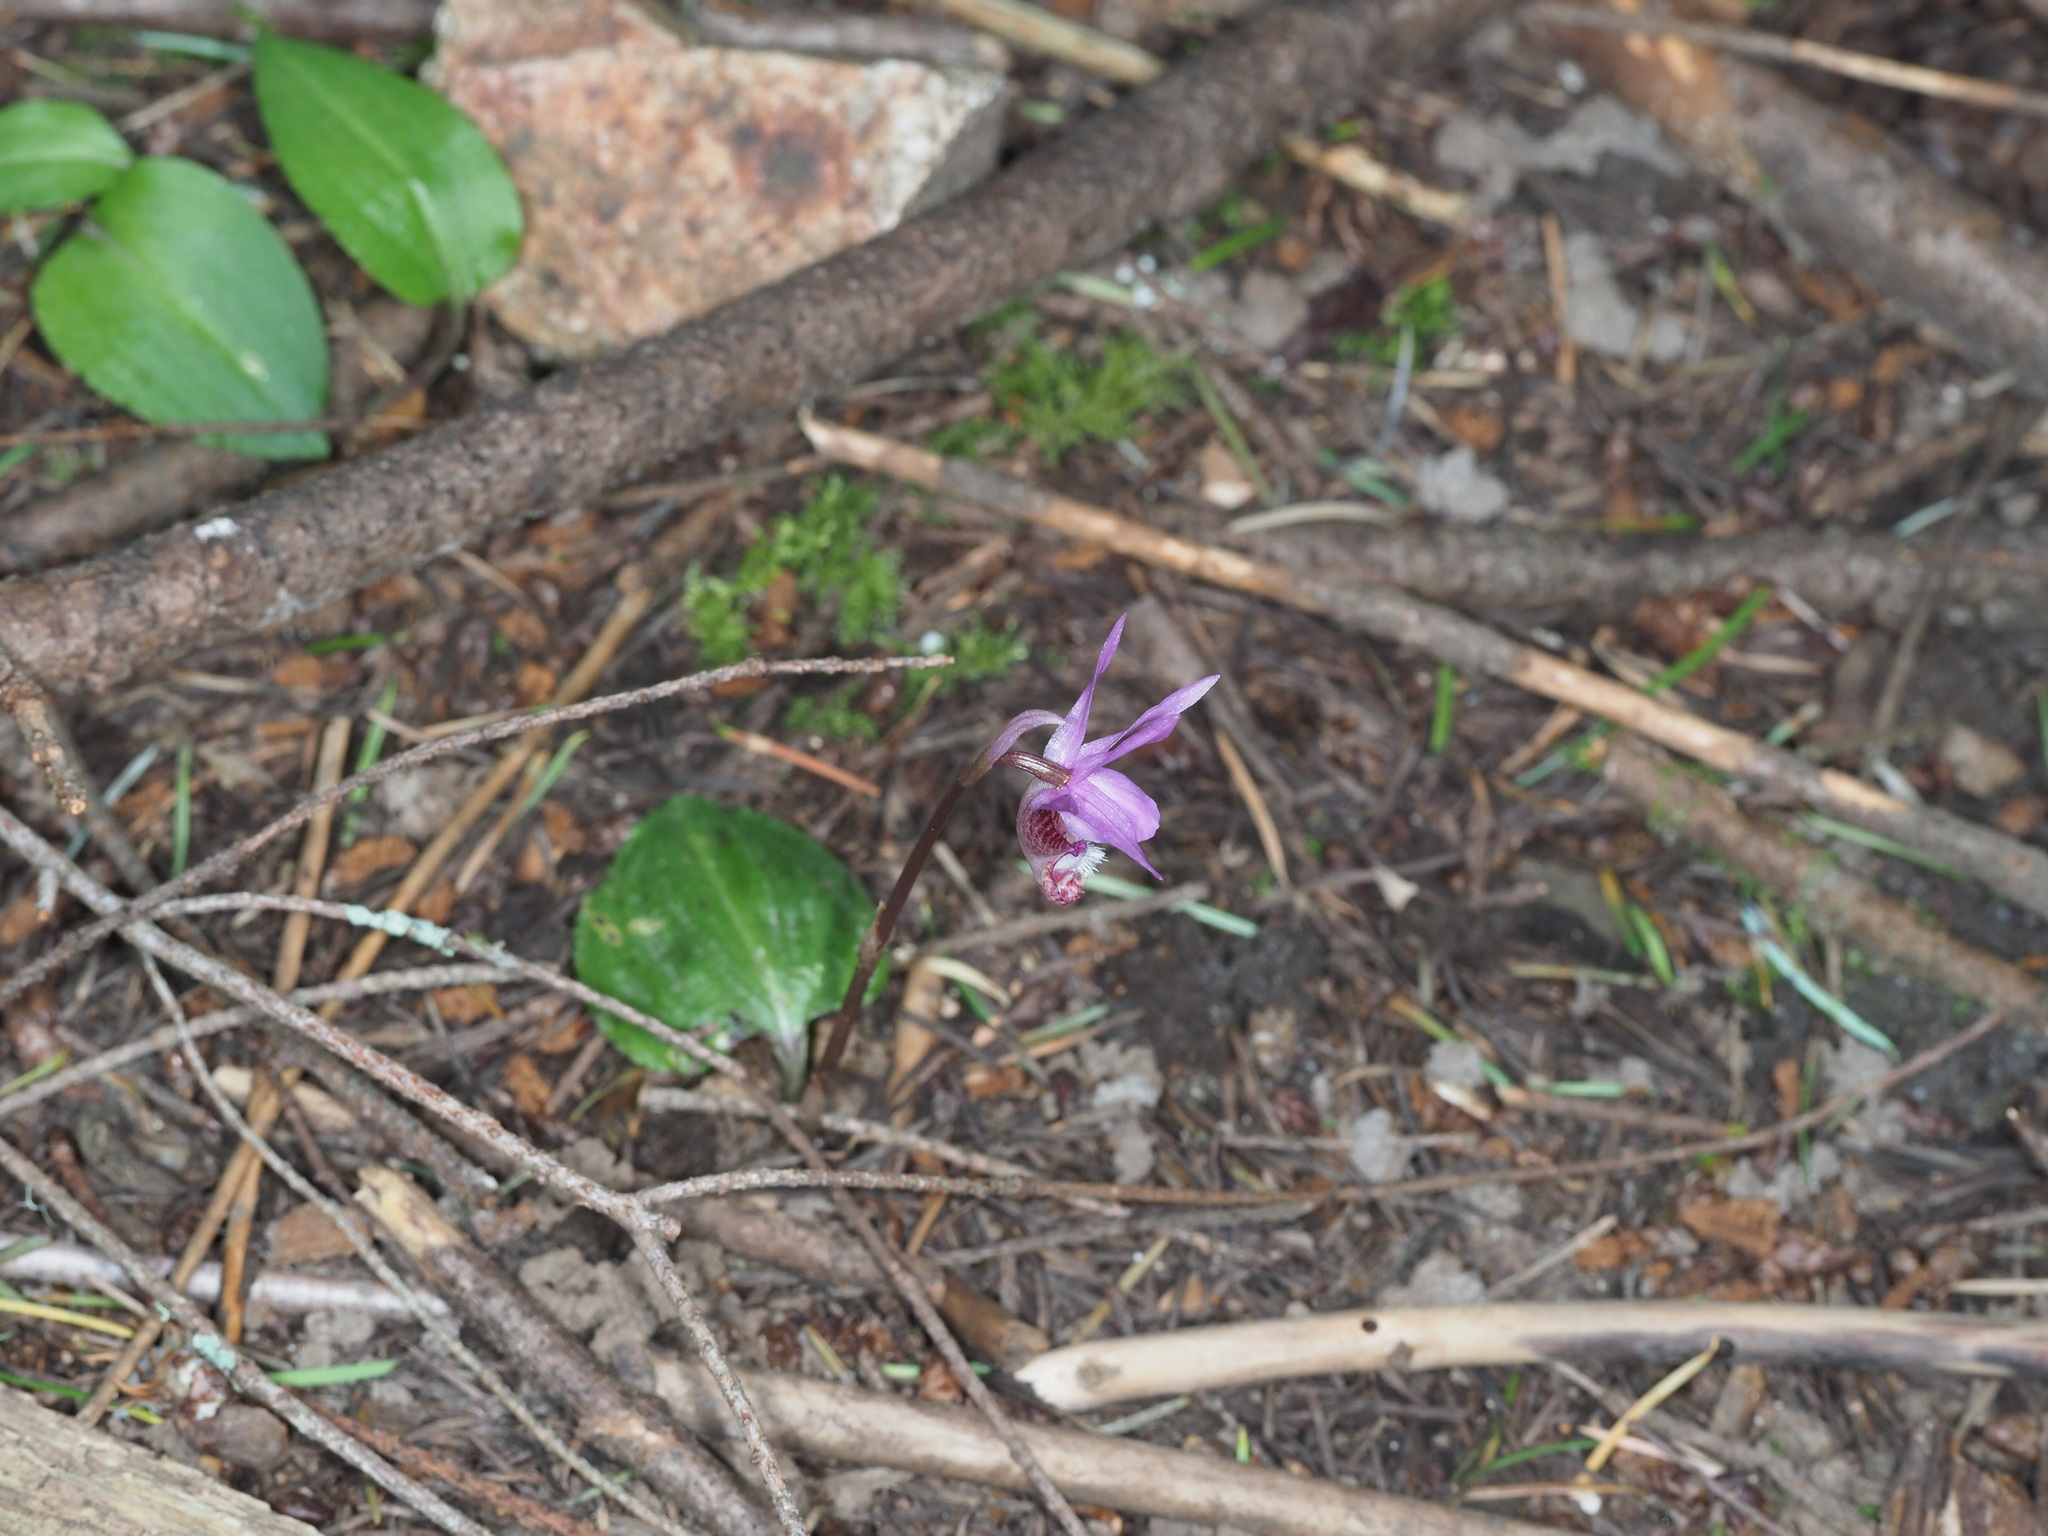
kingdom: Plantae
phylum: Tracheophyta
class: Liliopsida
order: Asparagales
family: Orchidaceae
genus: Calypso
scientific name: Calypso bulbosa
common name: Calypso
